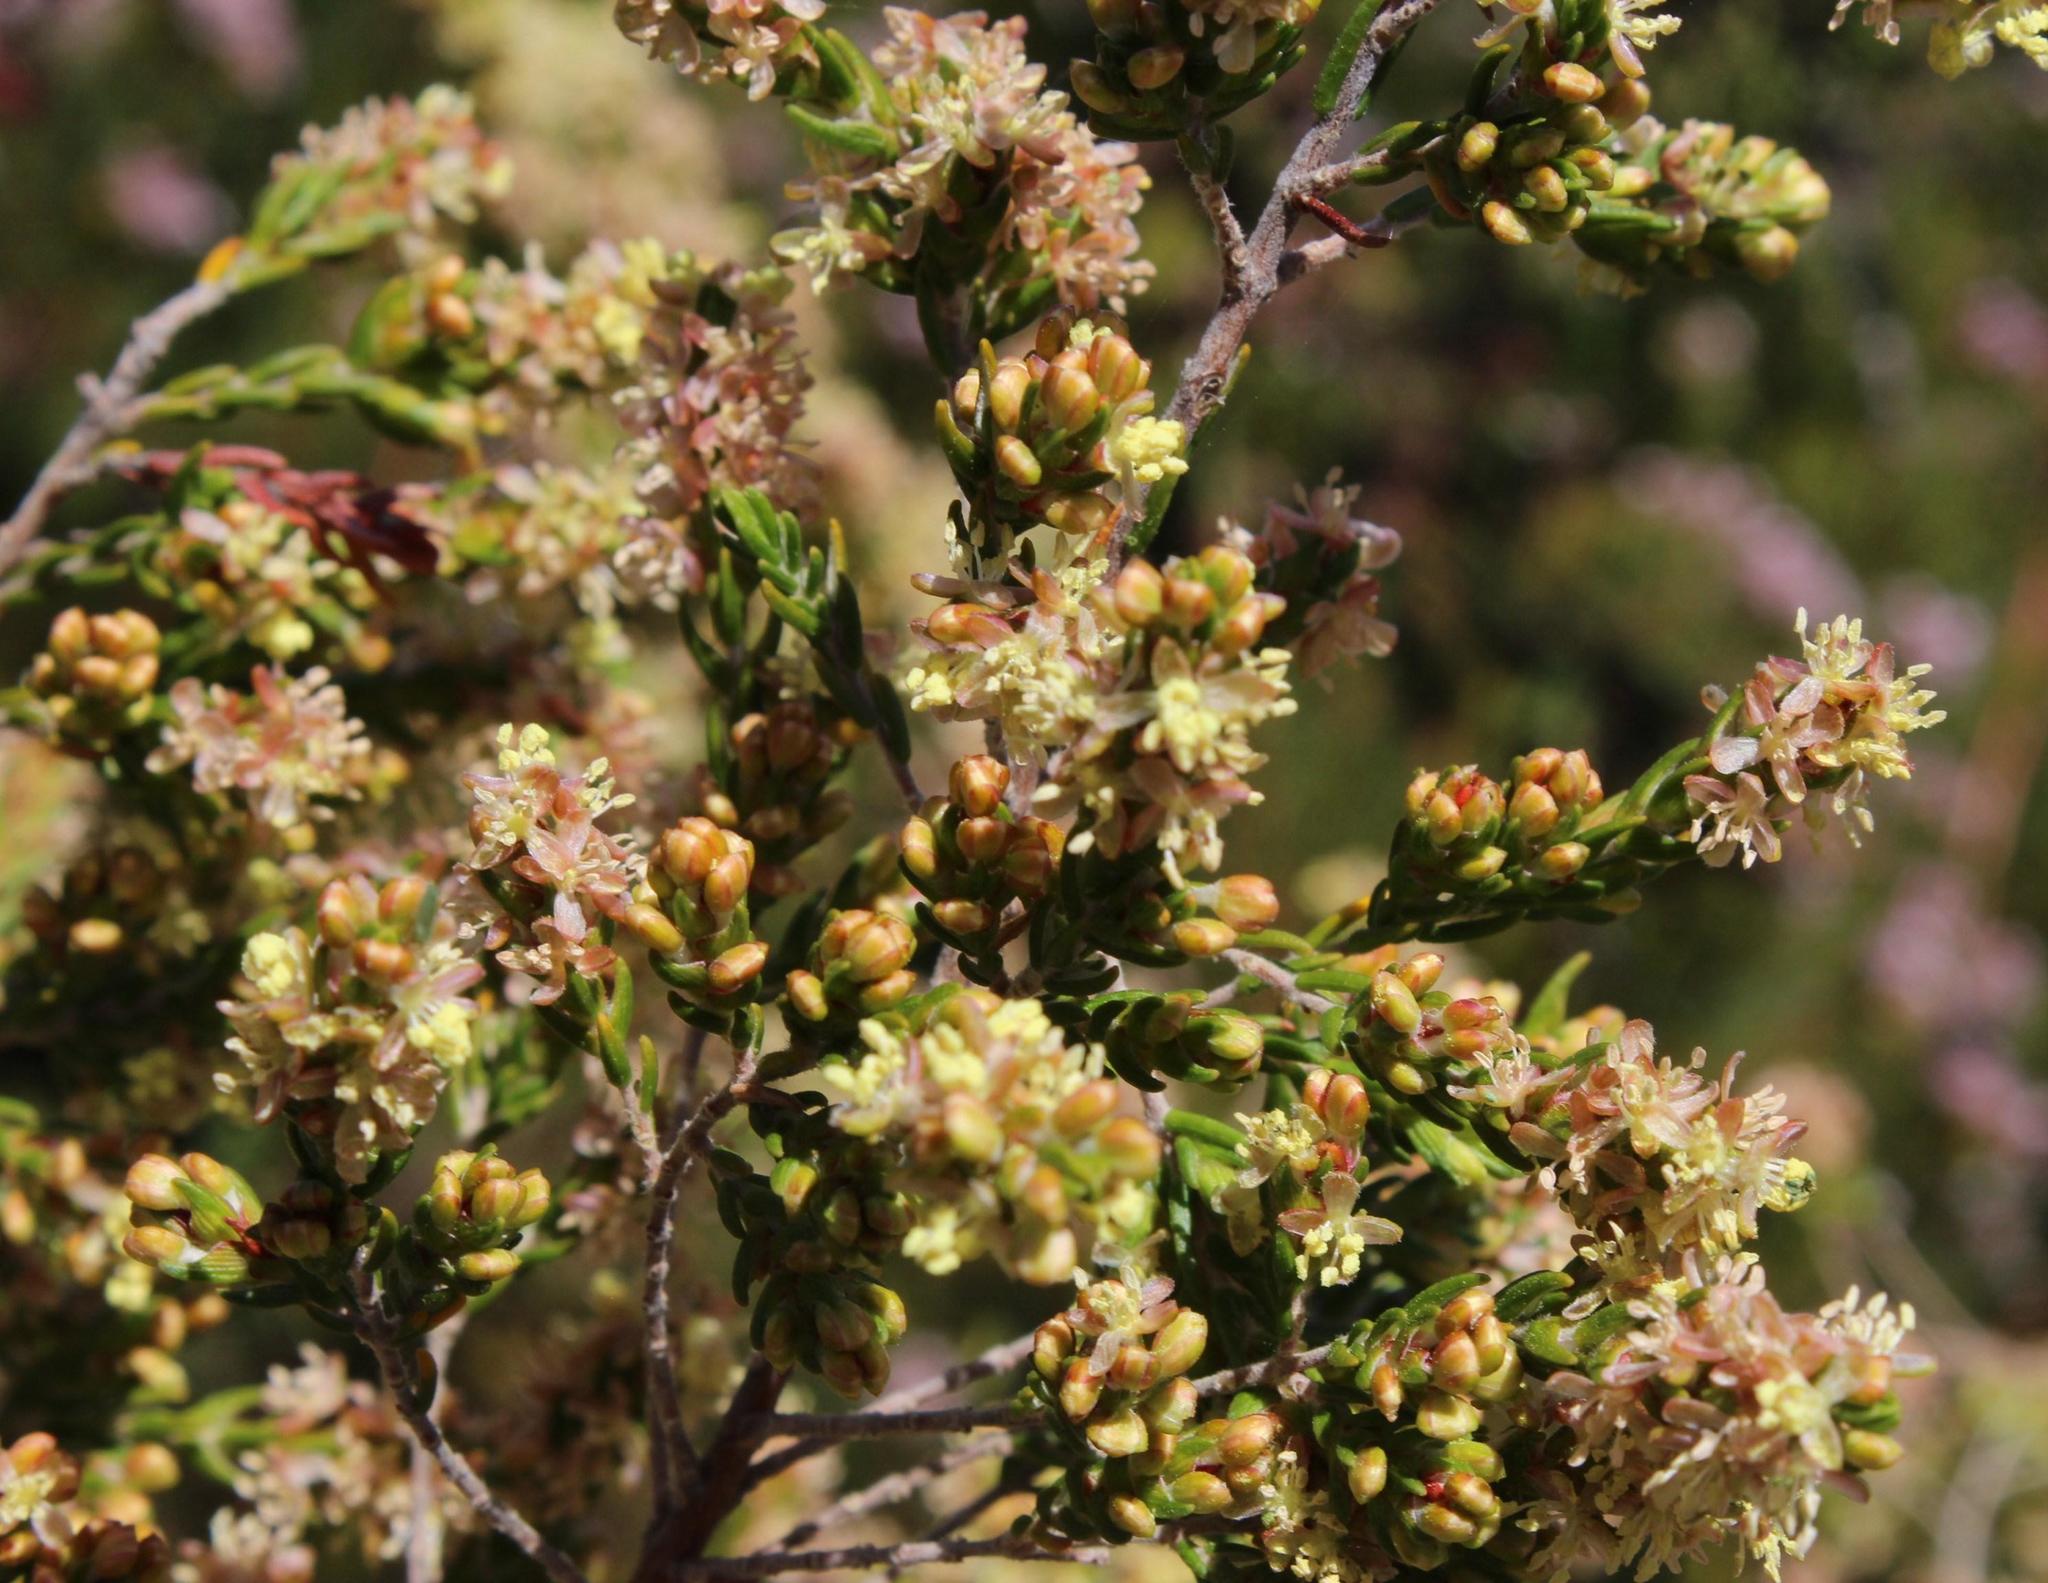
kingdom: Plantae
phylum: Tracheophyta
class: Magnoliopsida
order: Malvales
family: Thymelaeaceae
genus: Passerina
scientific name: Passerina corymbosa
